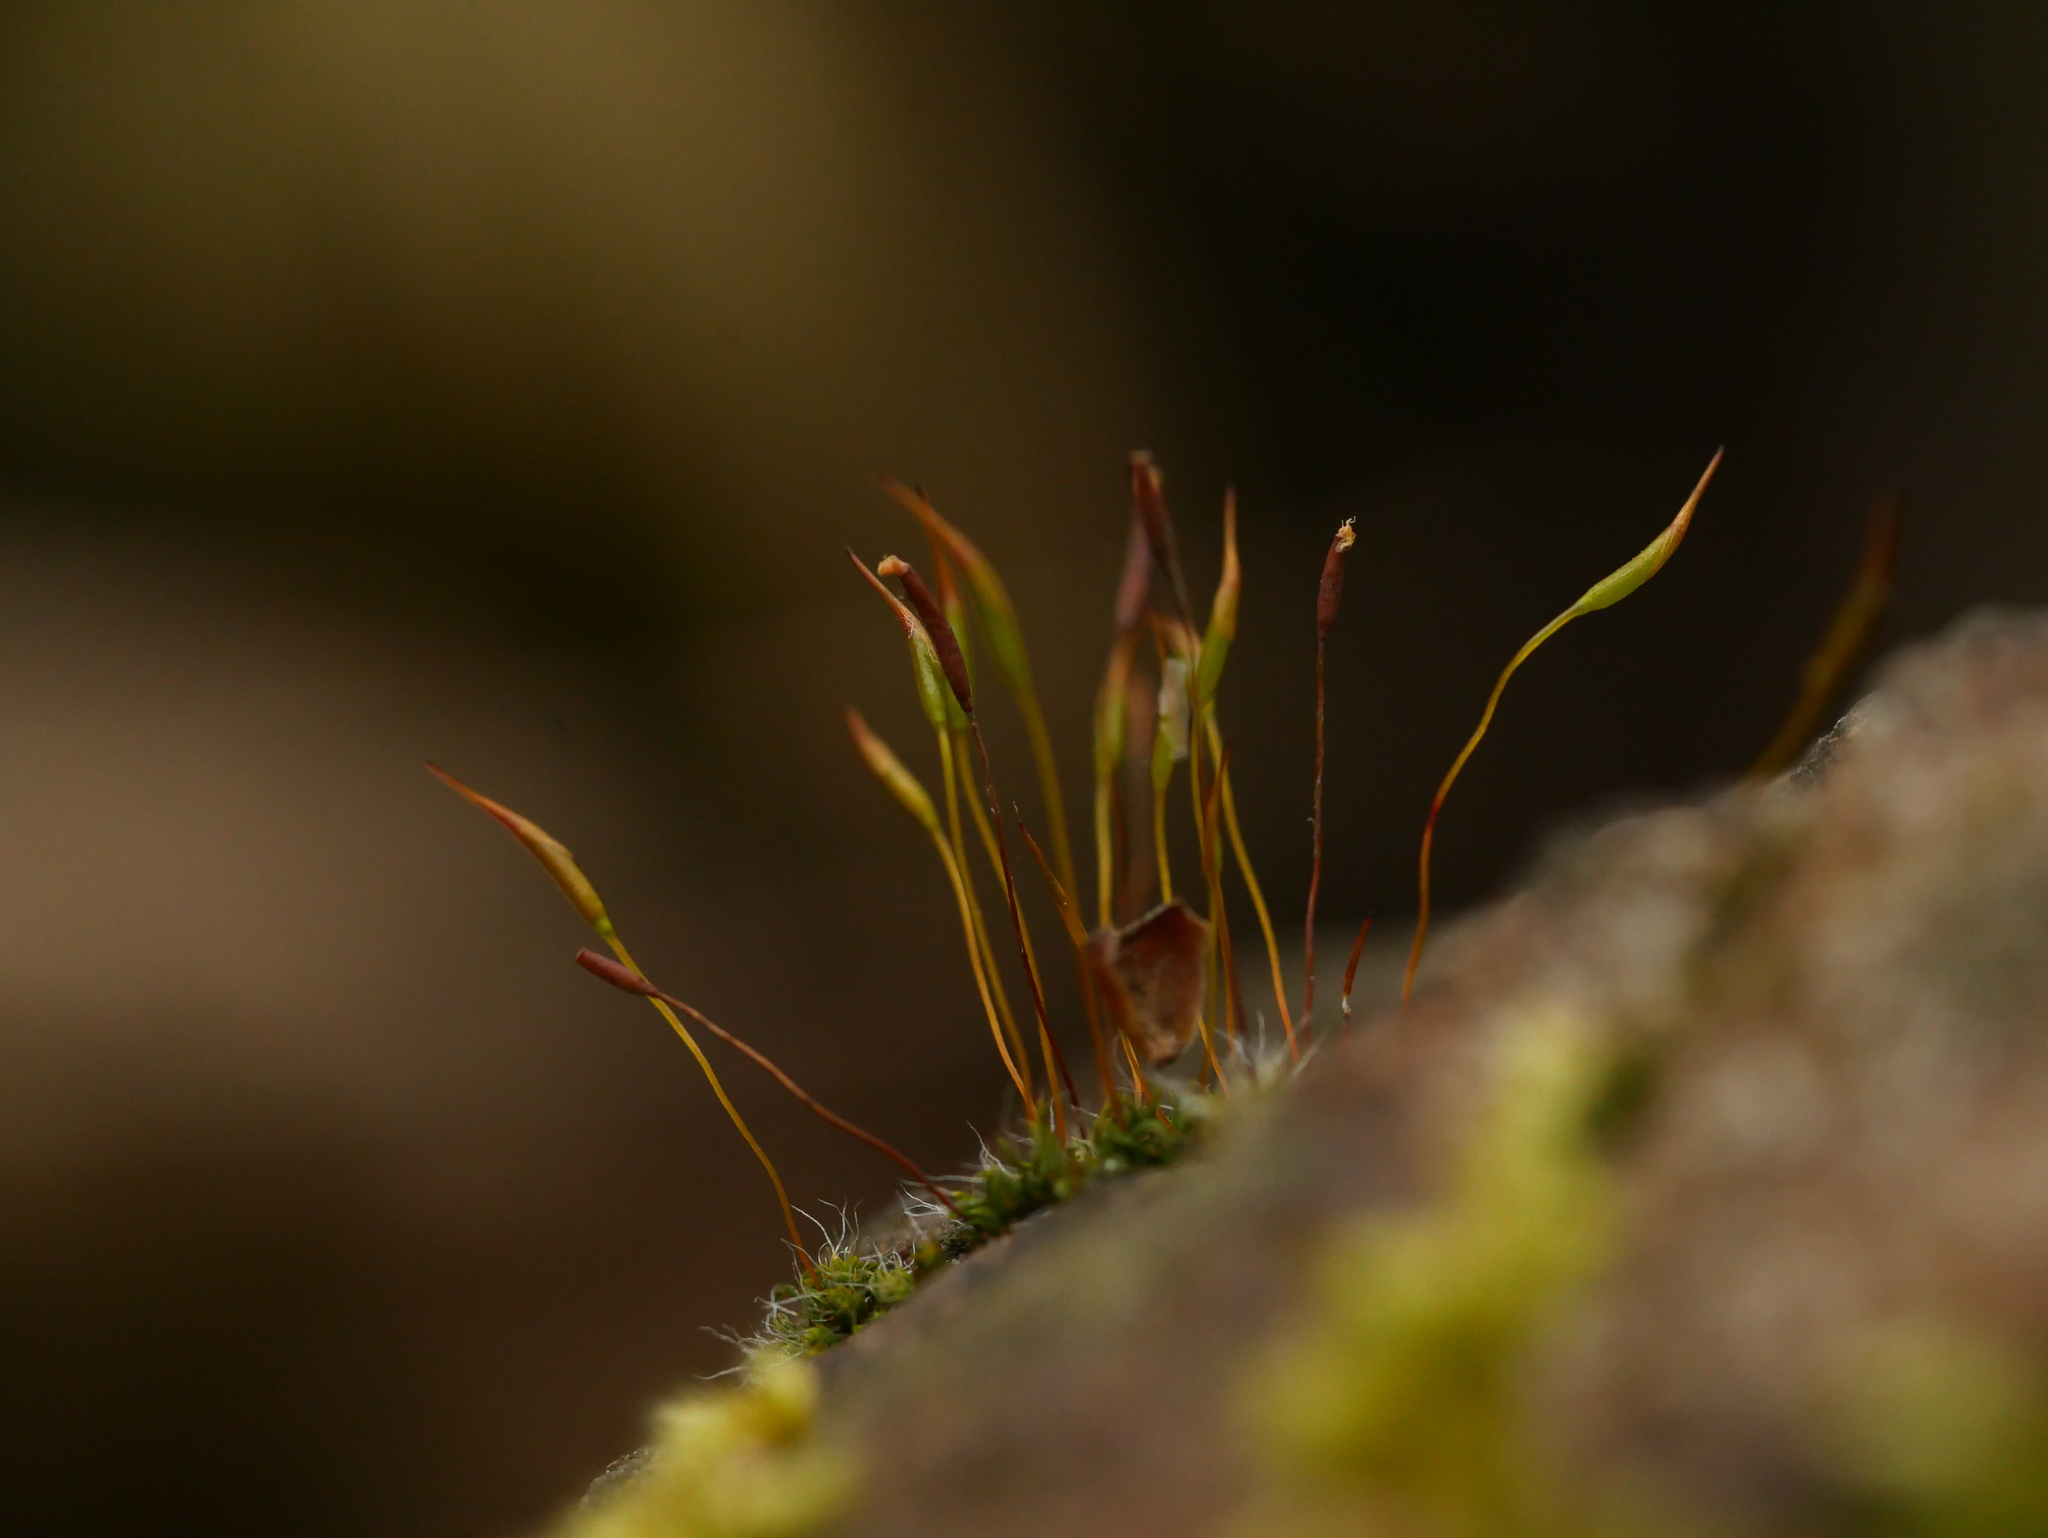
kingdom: Plantae
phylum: Bryophyta
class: Bryopsida
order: Pottiales
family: Pottiaceae
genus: Tortula
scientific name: Tortula muralis
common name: Wall screw-moss
